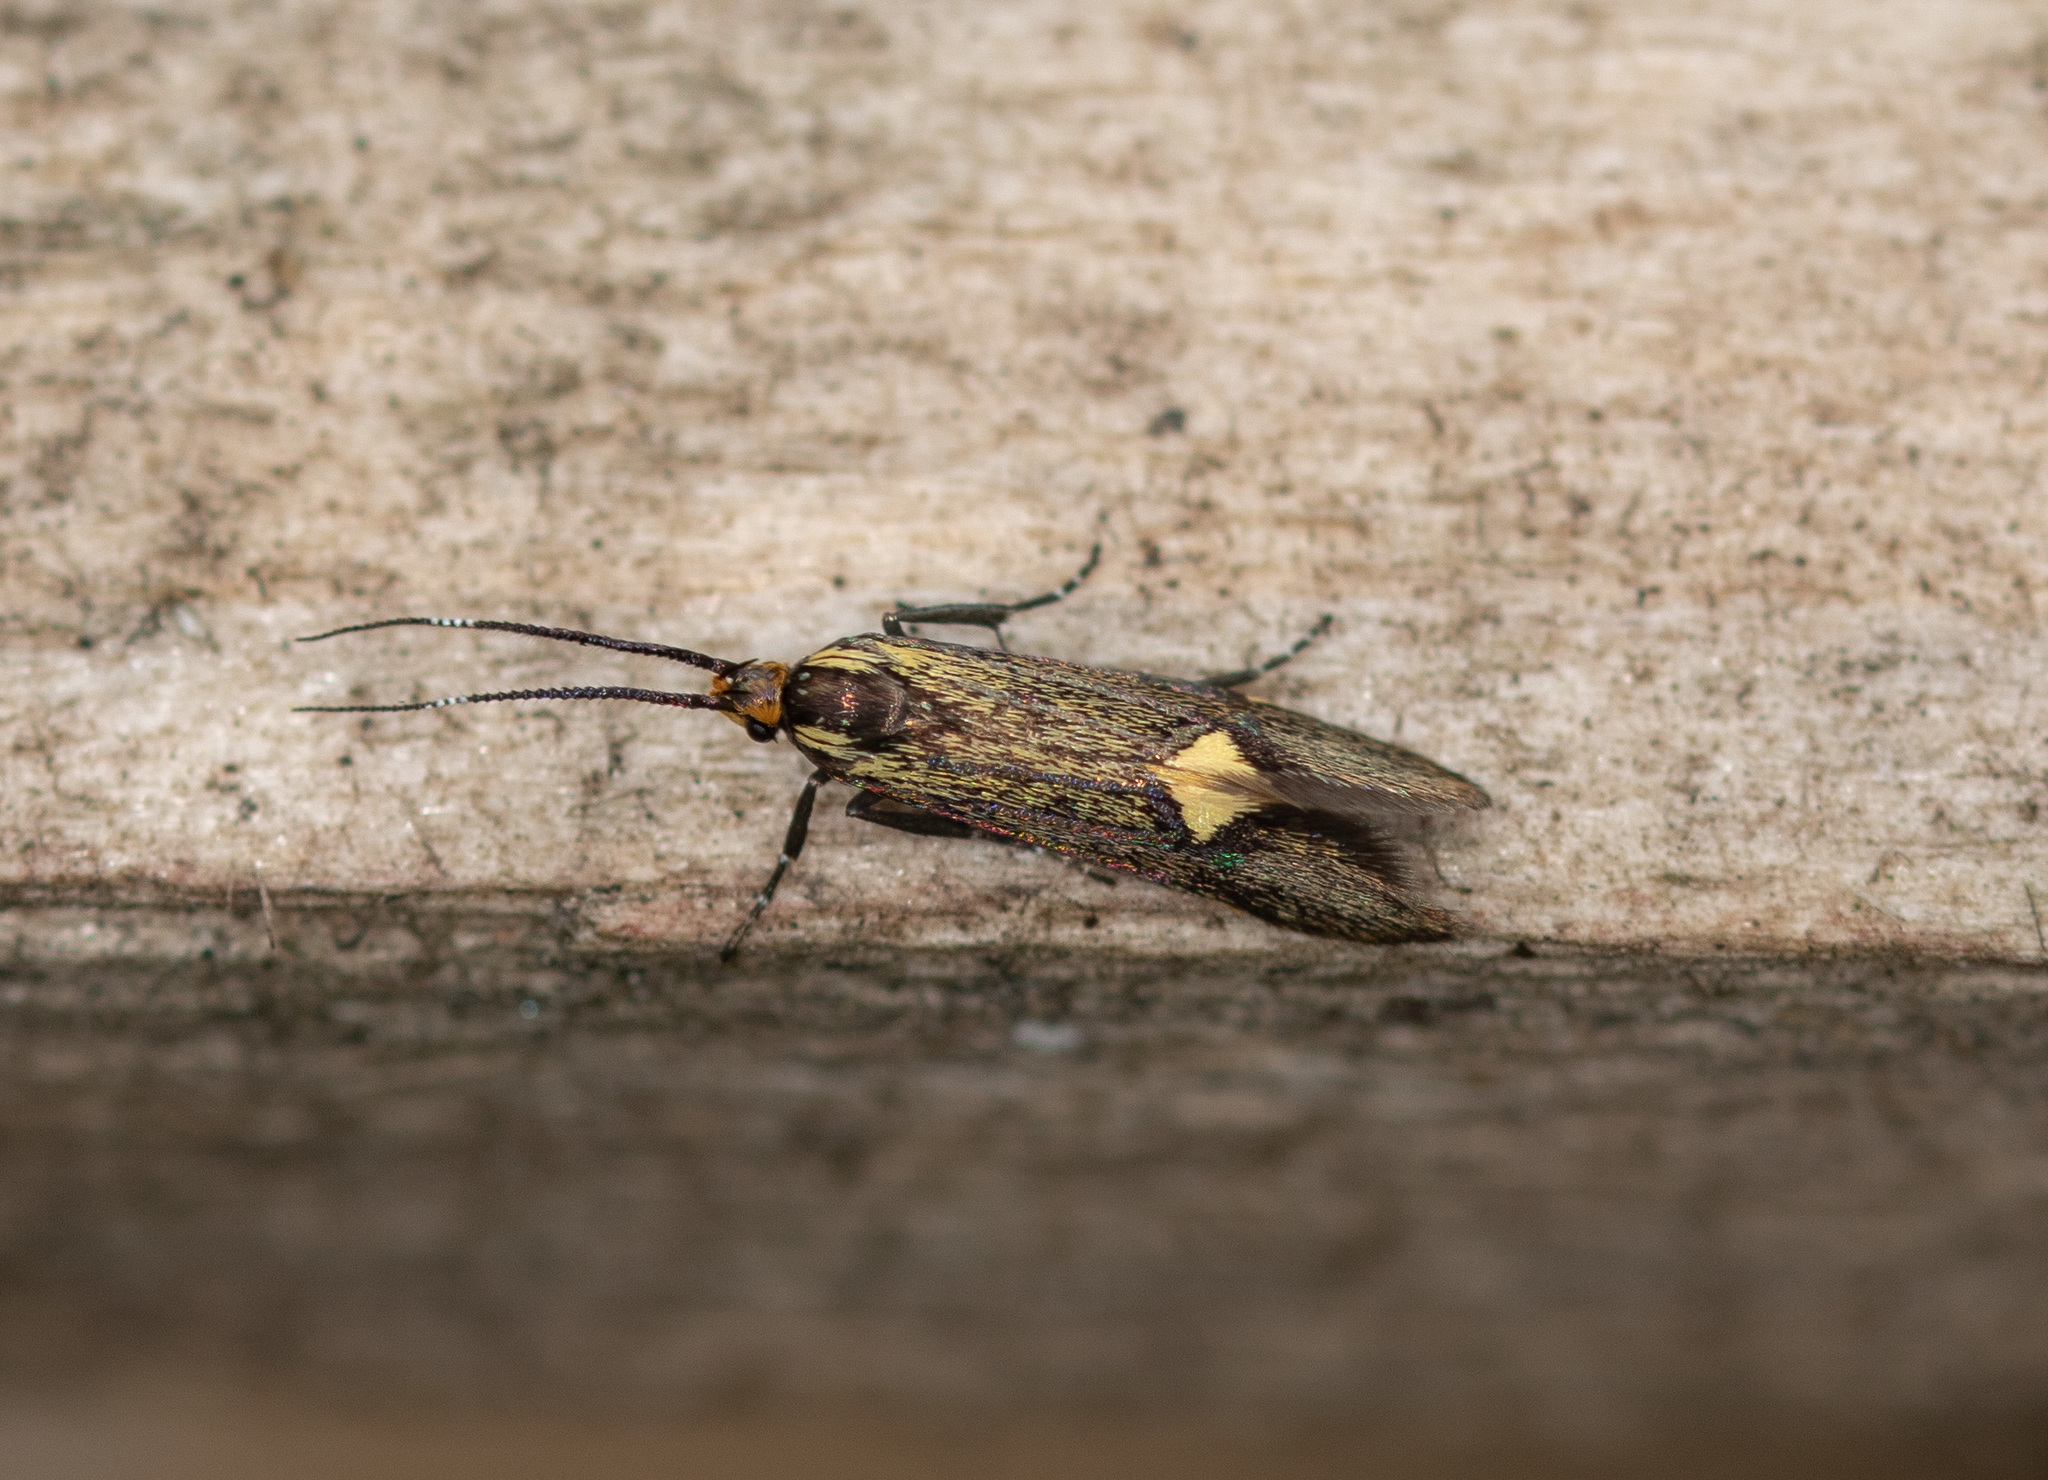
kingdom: Animalia
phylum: Arthropoda
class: Insecta
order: Lepidoptera
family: Oecophoridae
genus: Dafa
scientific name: Dafa Esperia sulphurella
